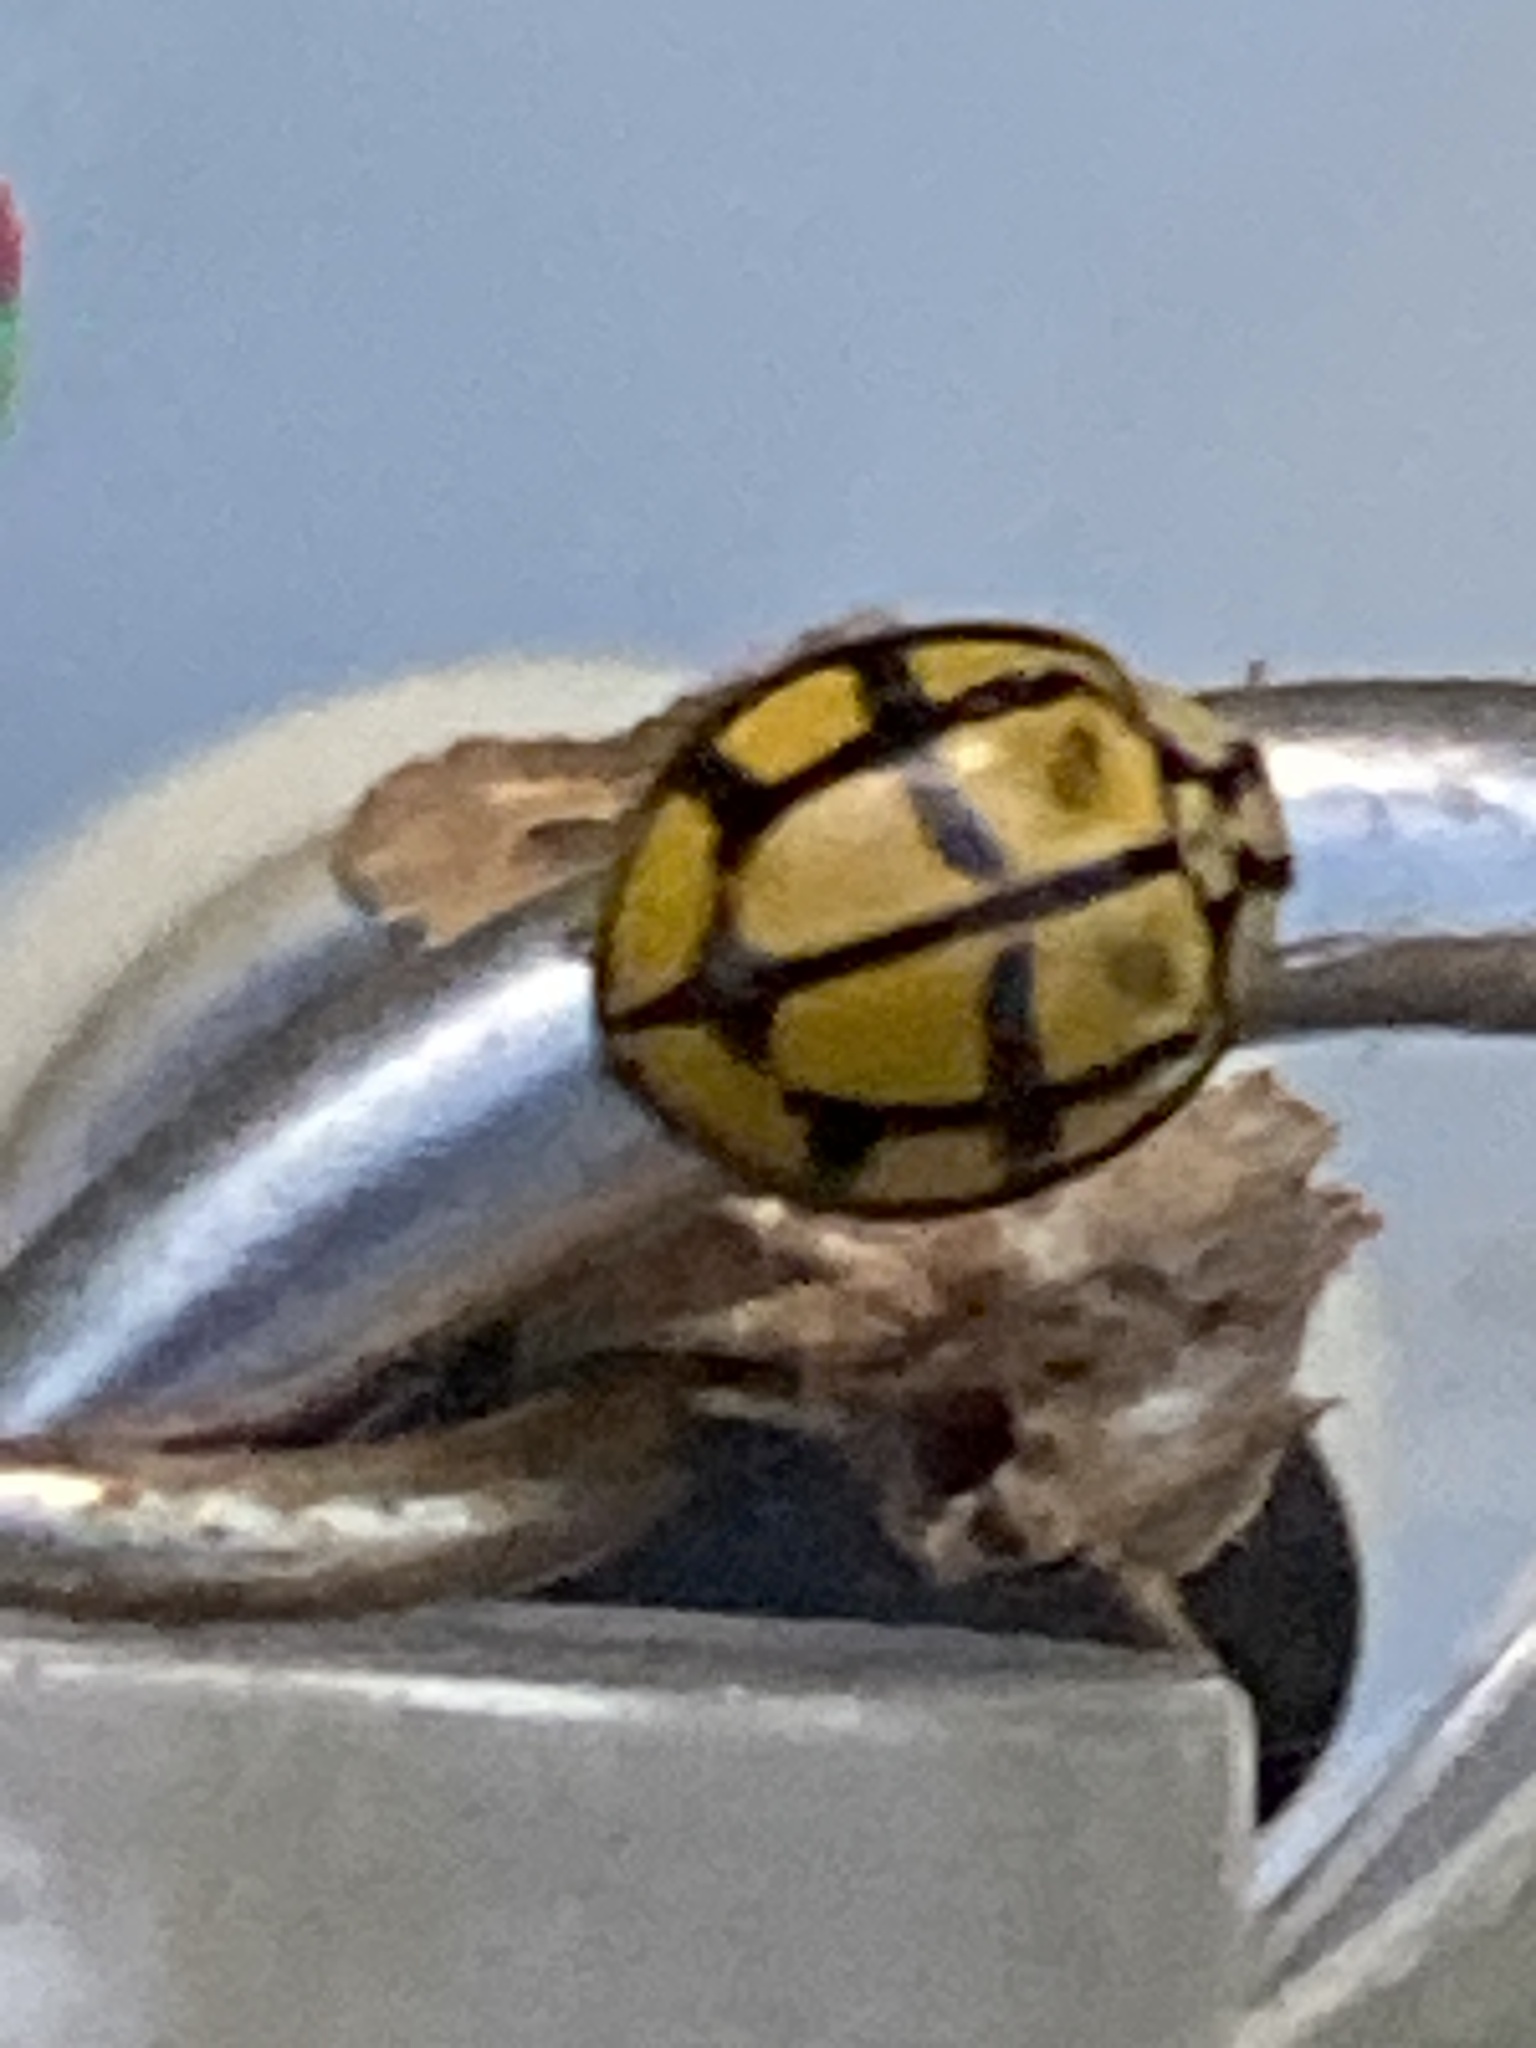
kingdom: Animalia
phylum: Arthropoda
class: Insecta
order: Coleoptera
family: Coccinellidae
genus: Harmonia
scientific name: Harmonia
